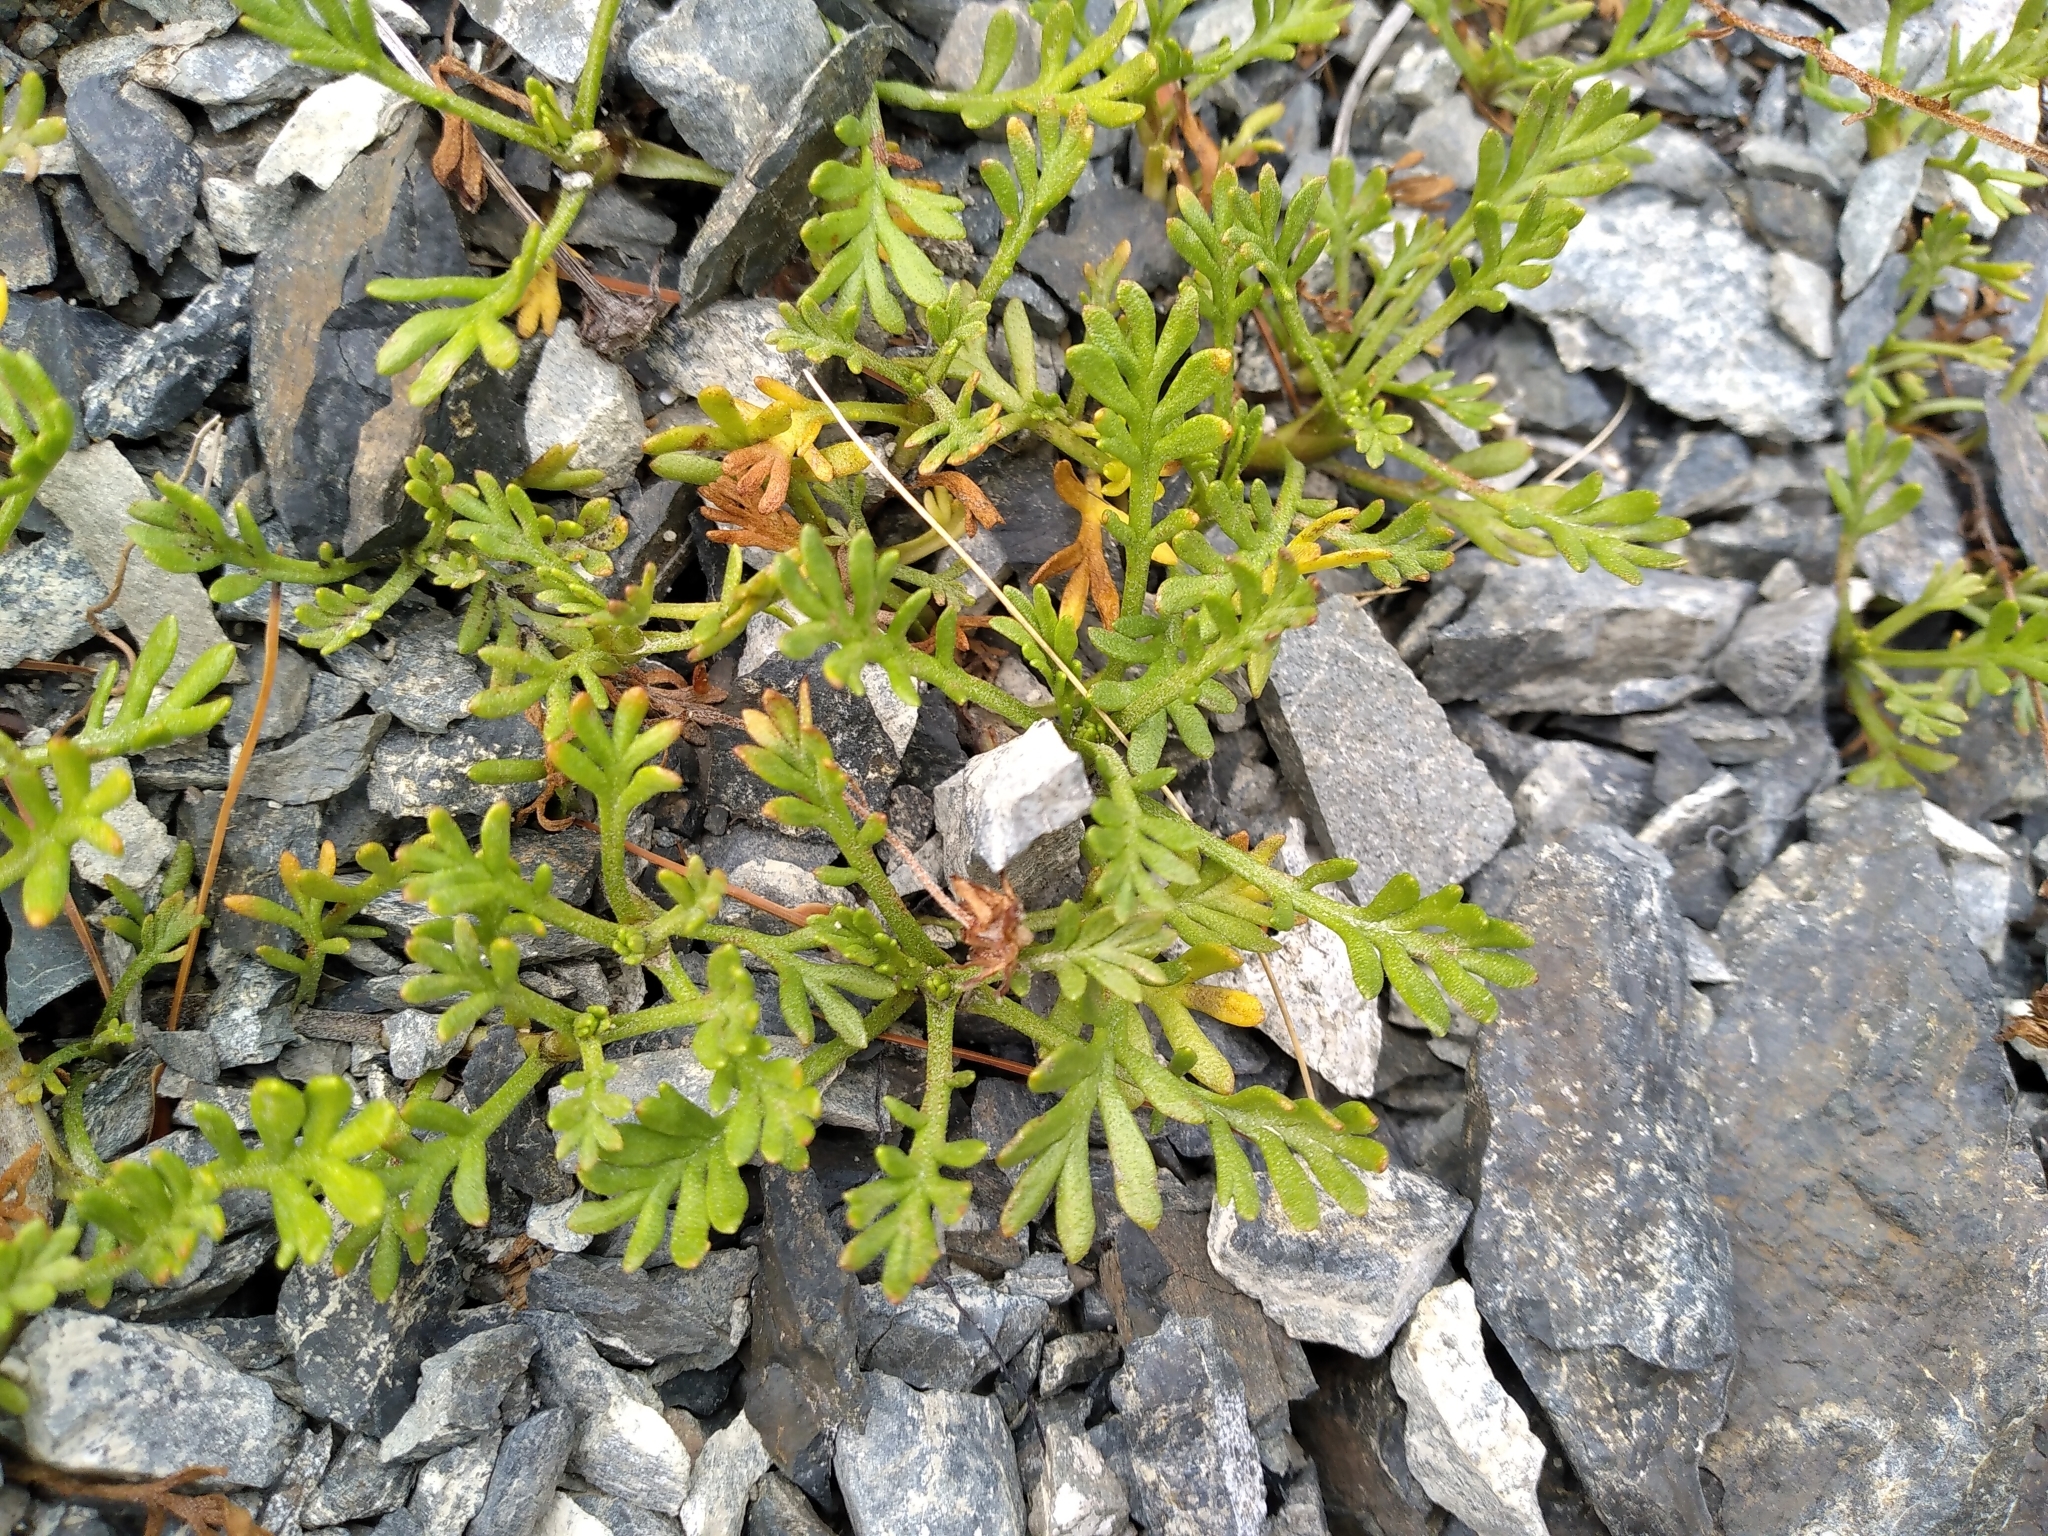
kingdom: Plantae
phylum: Tracheophyta
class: Magnoliopsida
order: Asterales
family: Asteraceae
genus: Leptinella
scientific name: Leptinella pyrethrifolia
